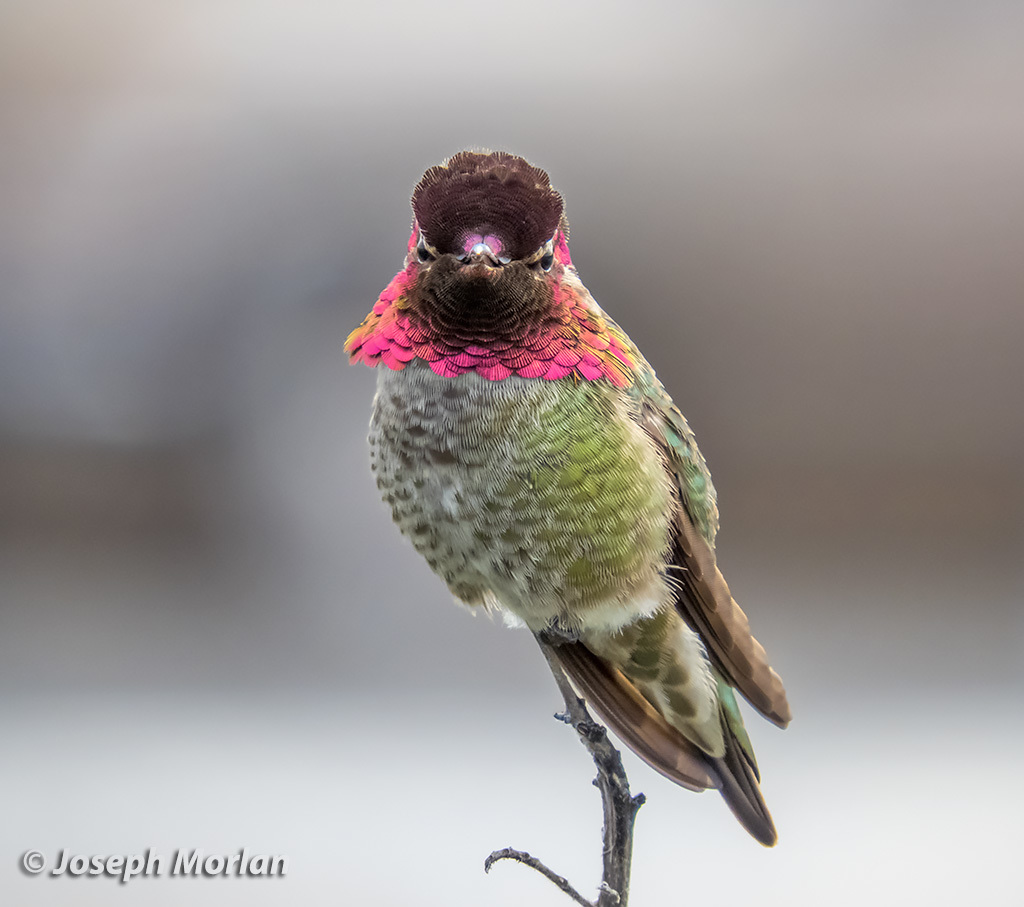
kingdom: Animalia
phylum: Chordata
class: Aves
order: Apodiformes
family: Trochilidae
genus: Calypte
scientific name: Calypte anna
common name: Anna's hummingbird
